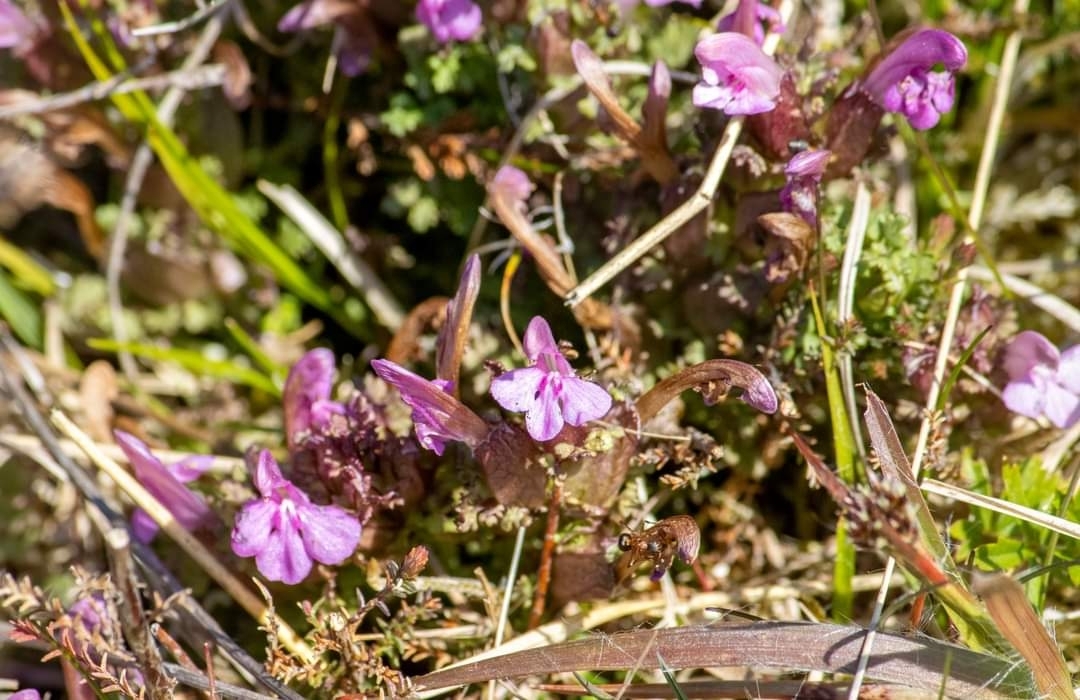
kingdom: Plantae
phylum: Tracheophyta
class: Magnoliopsida
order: Lamiales
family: Orobanchaceae
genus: Pedicularis
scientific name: Pedicularis sylvatica
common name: Lousewort
